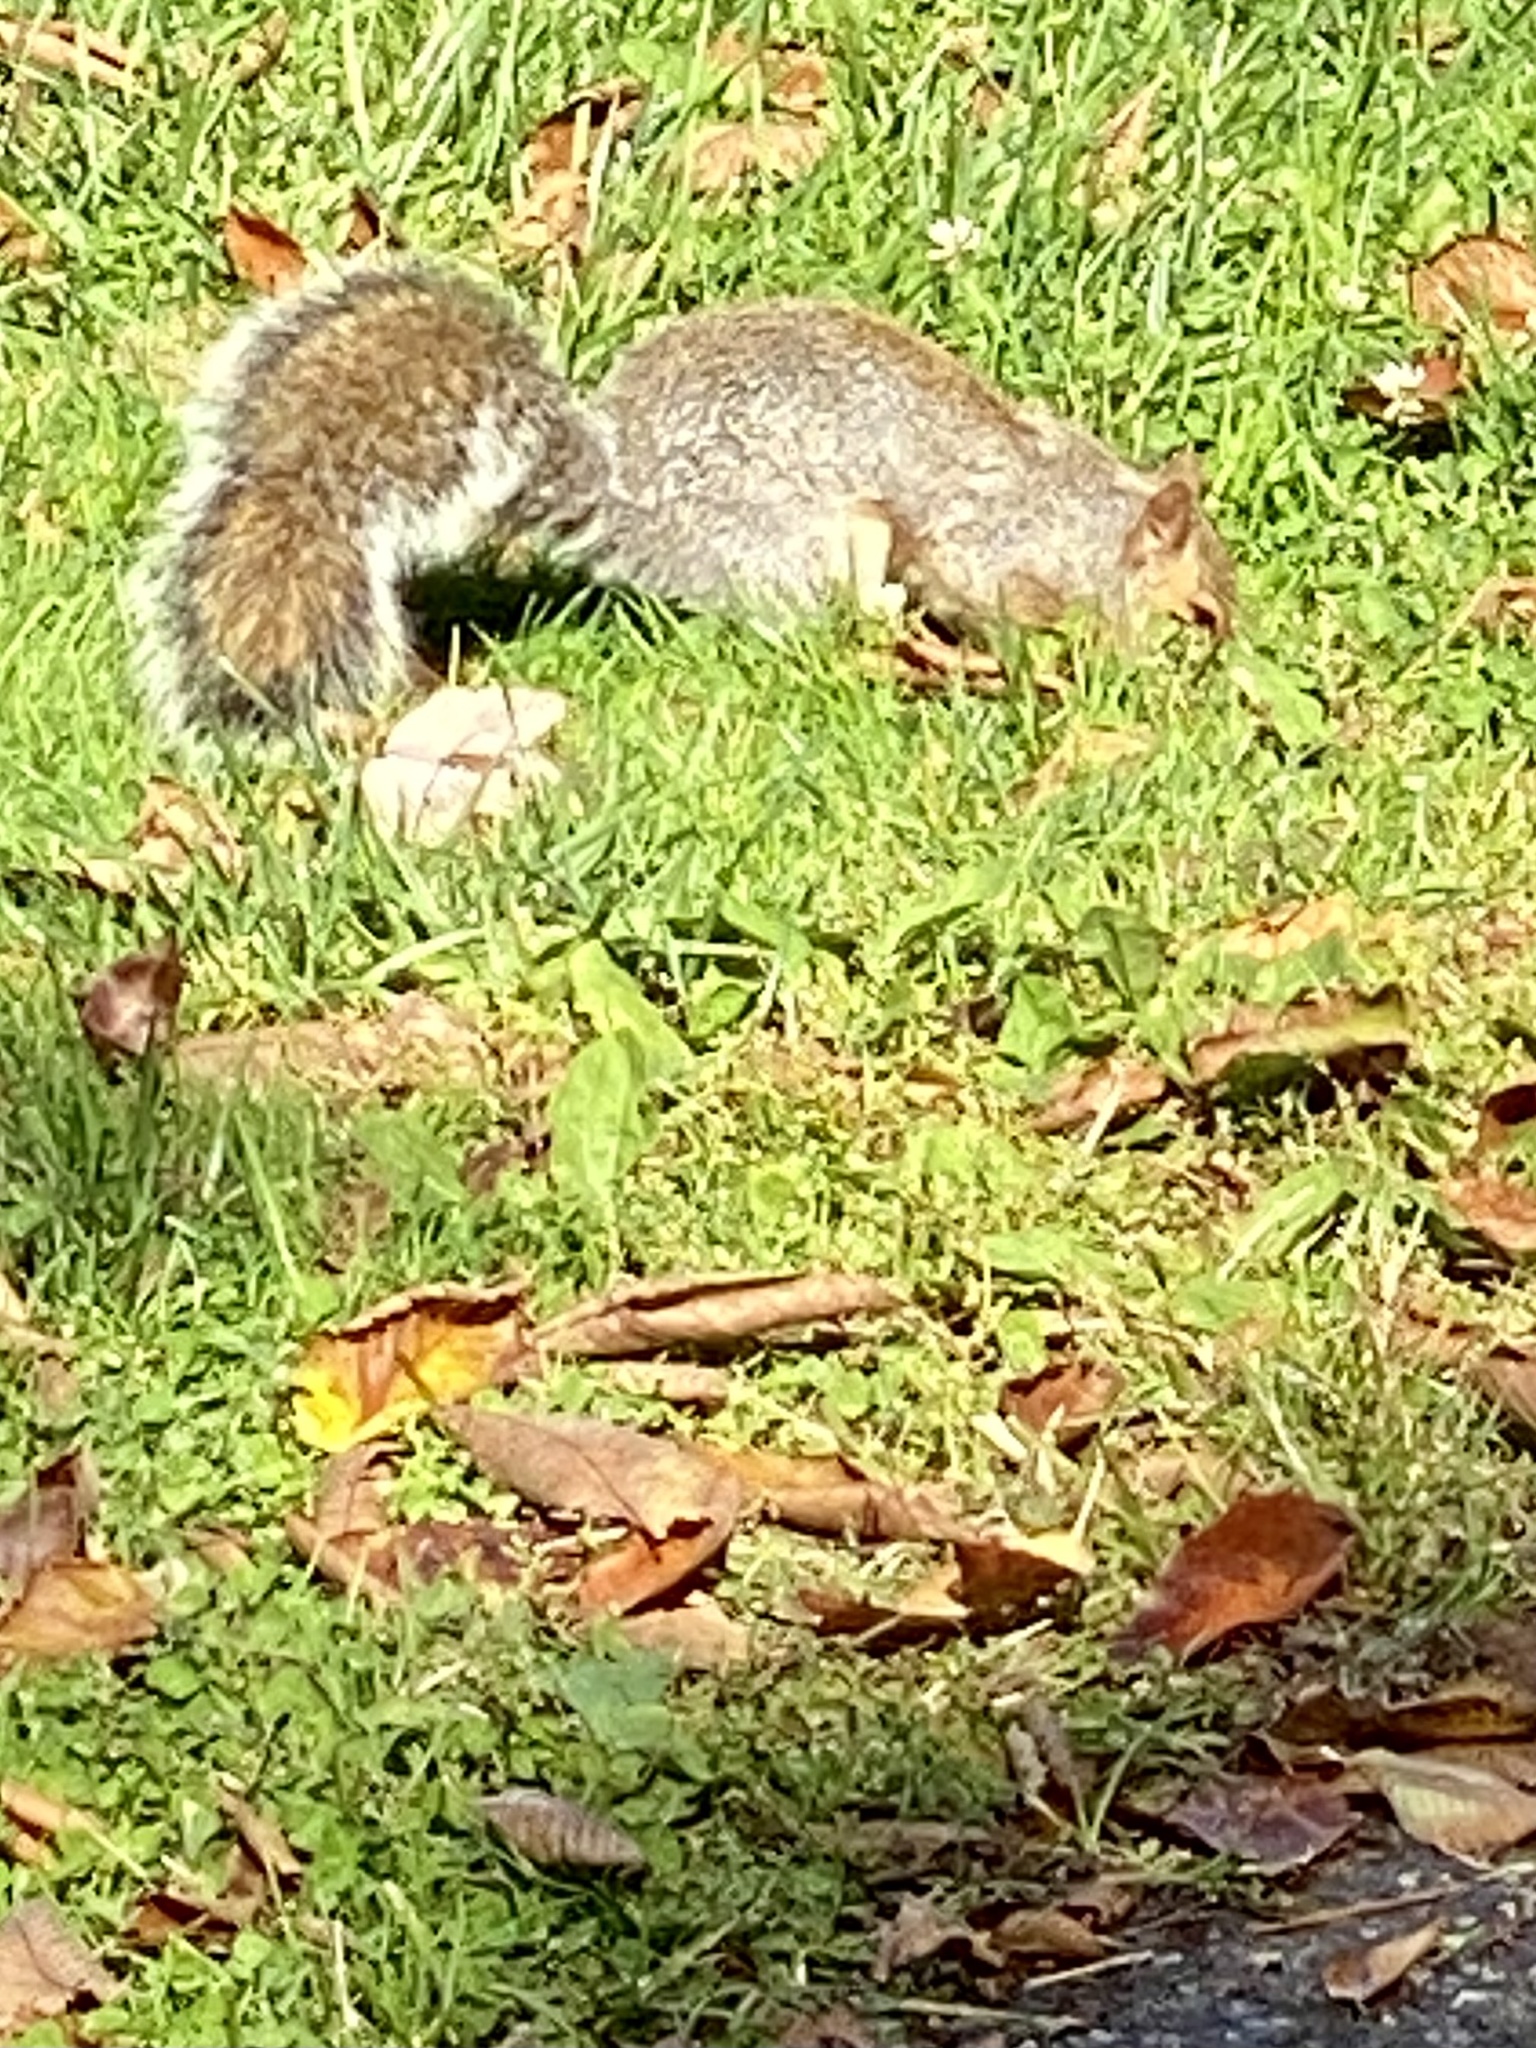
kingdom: Animalia
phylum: Chordata
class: Mammalia
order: Rodentia
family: Sciuridae
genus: Sciurus
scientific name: Sciurus carolinensis
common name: Eastern gray squirrel
